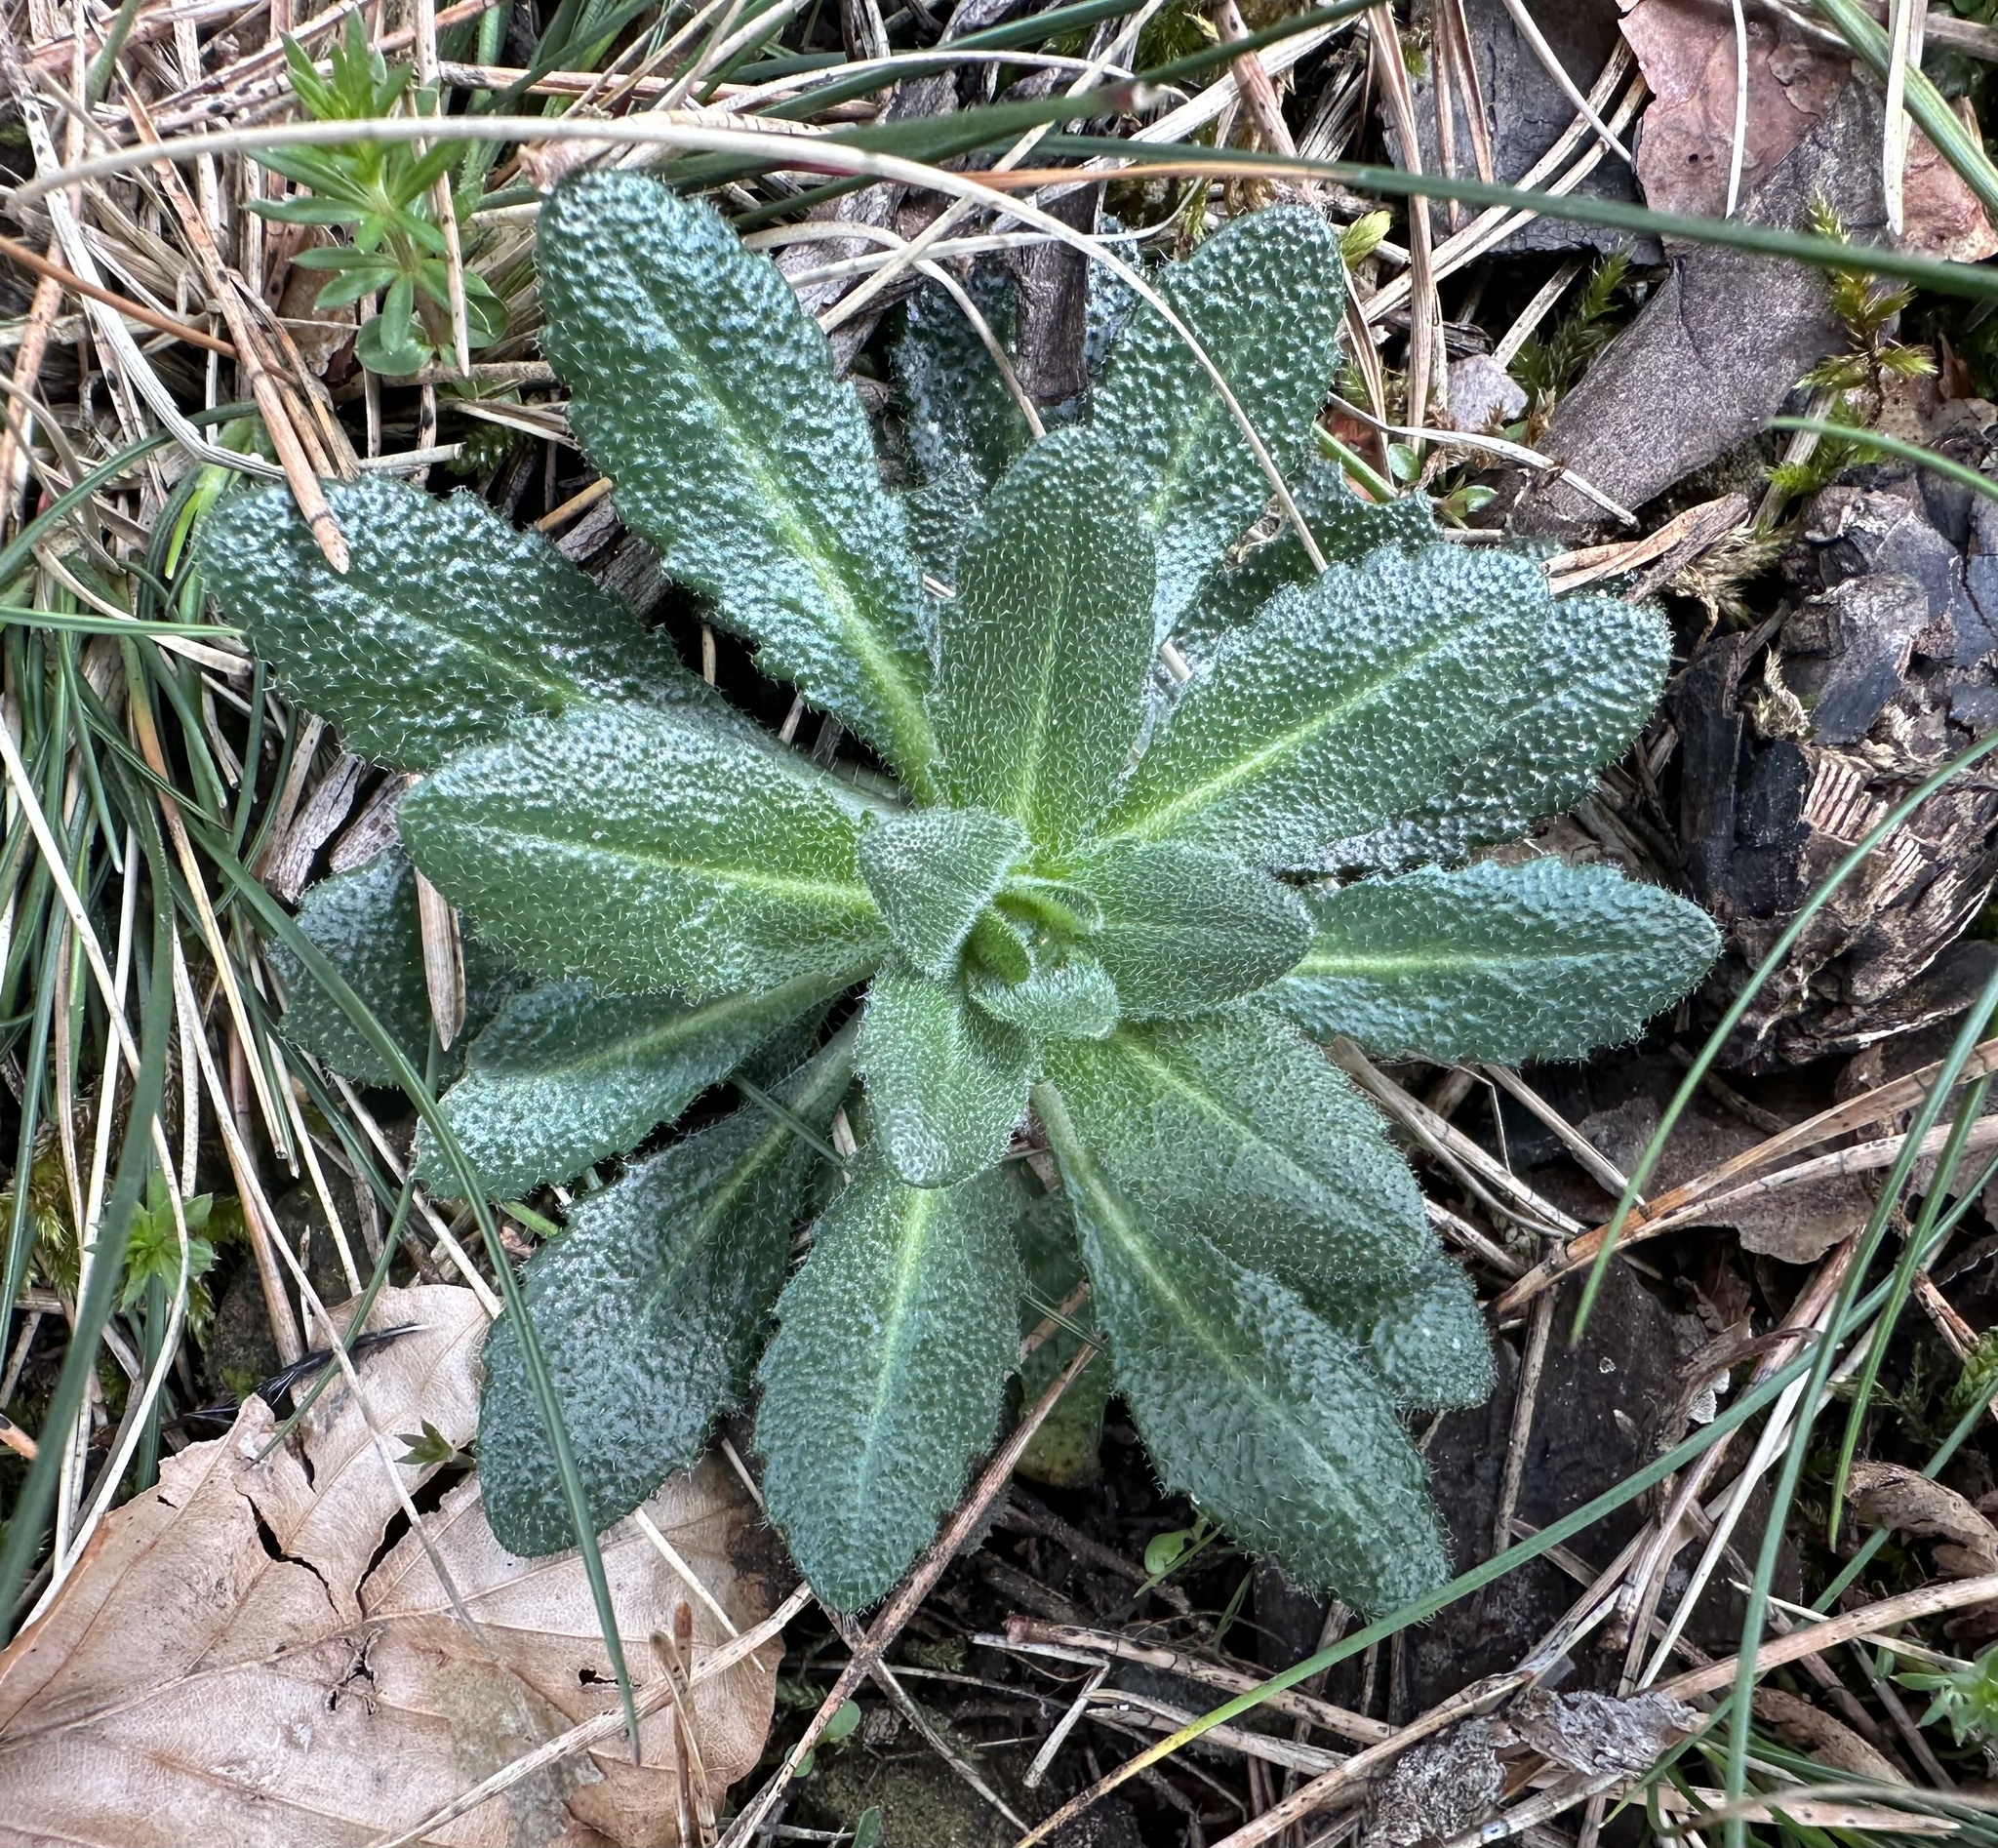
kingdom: Plantae
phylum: Tracheophyta
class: Magnoliopsida
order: Brassicales
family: Brassicaceae
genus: Arabis
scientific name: Arabis hirsuta
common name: Hairy rock-cress
